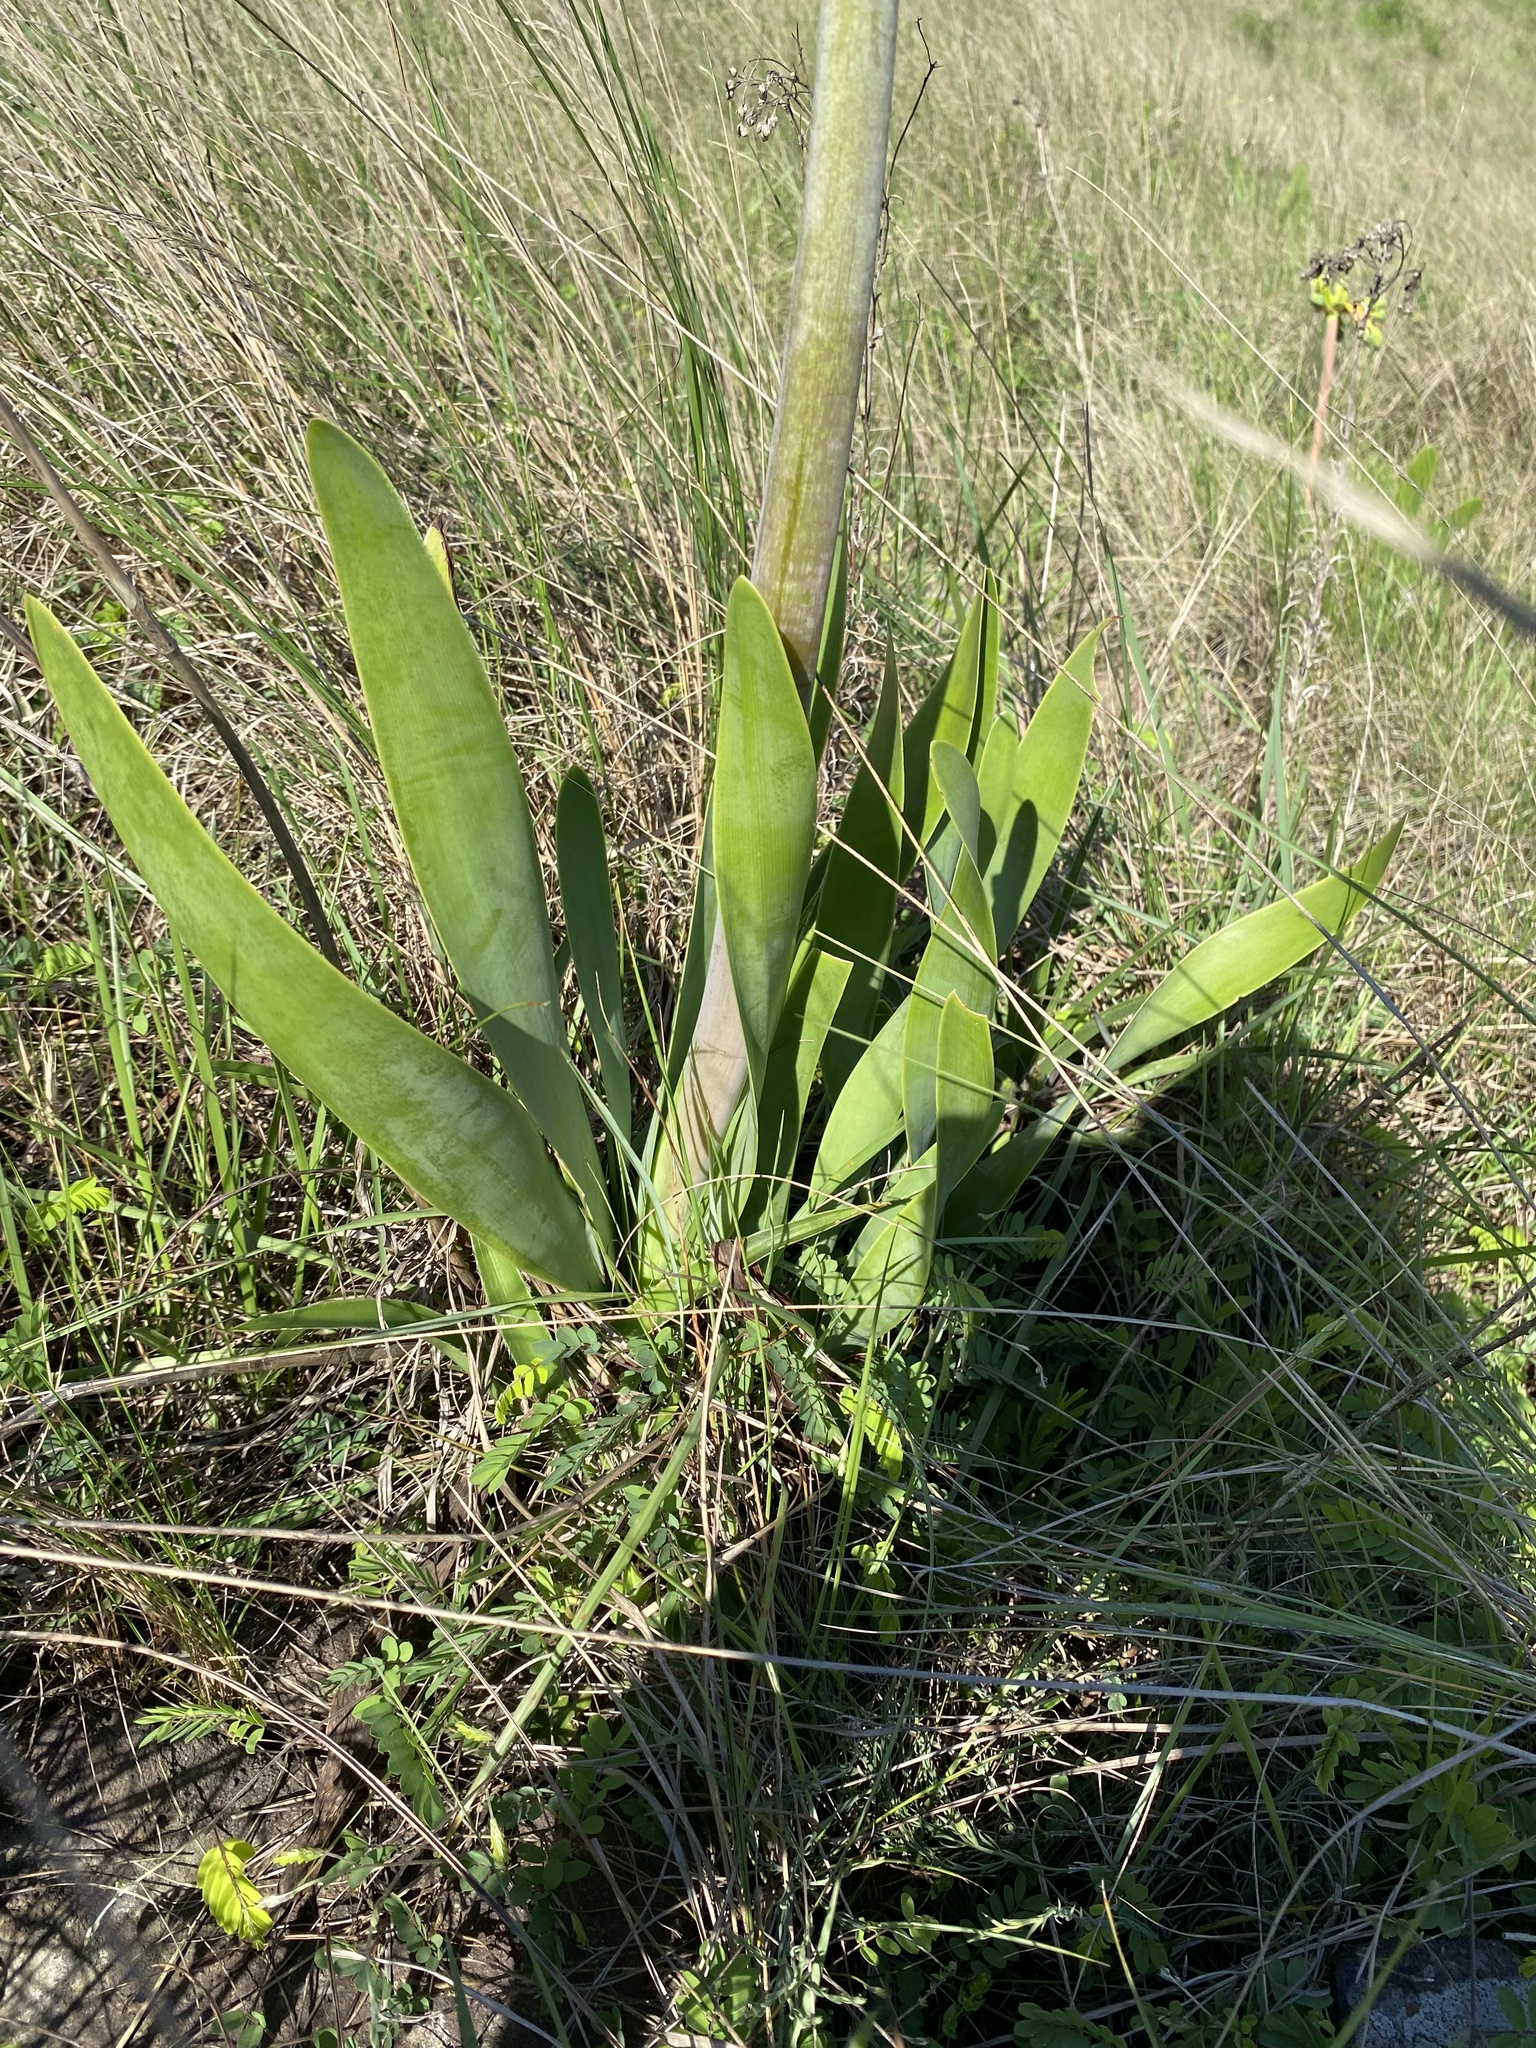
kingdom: Plantae
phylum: Tracheophyta
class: Liliopsida
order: Asparagales
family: Amaryllidaceae
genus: Cyrtanthus
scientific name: Cyrtanthus obliquus
